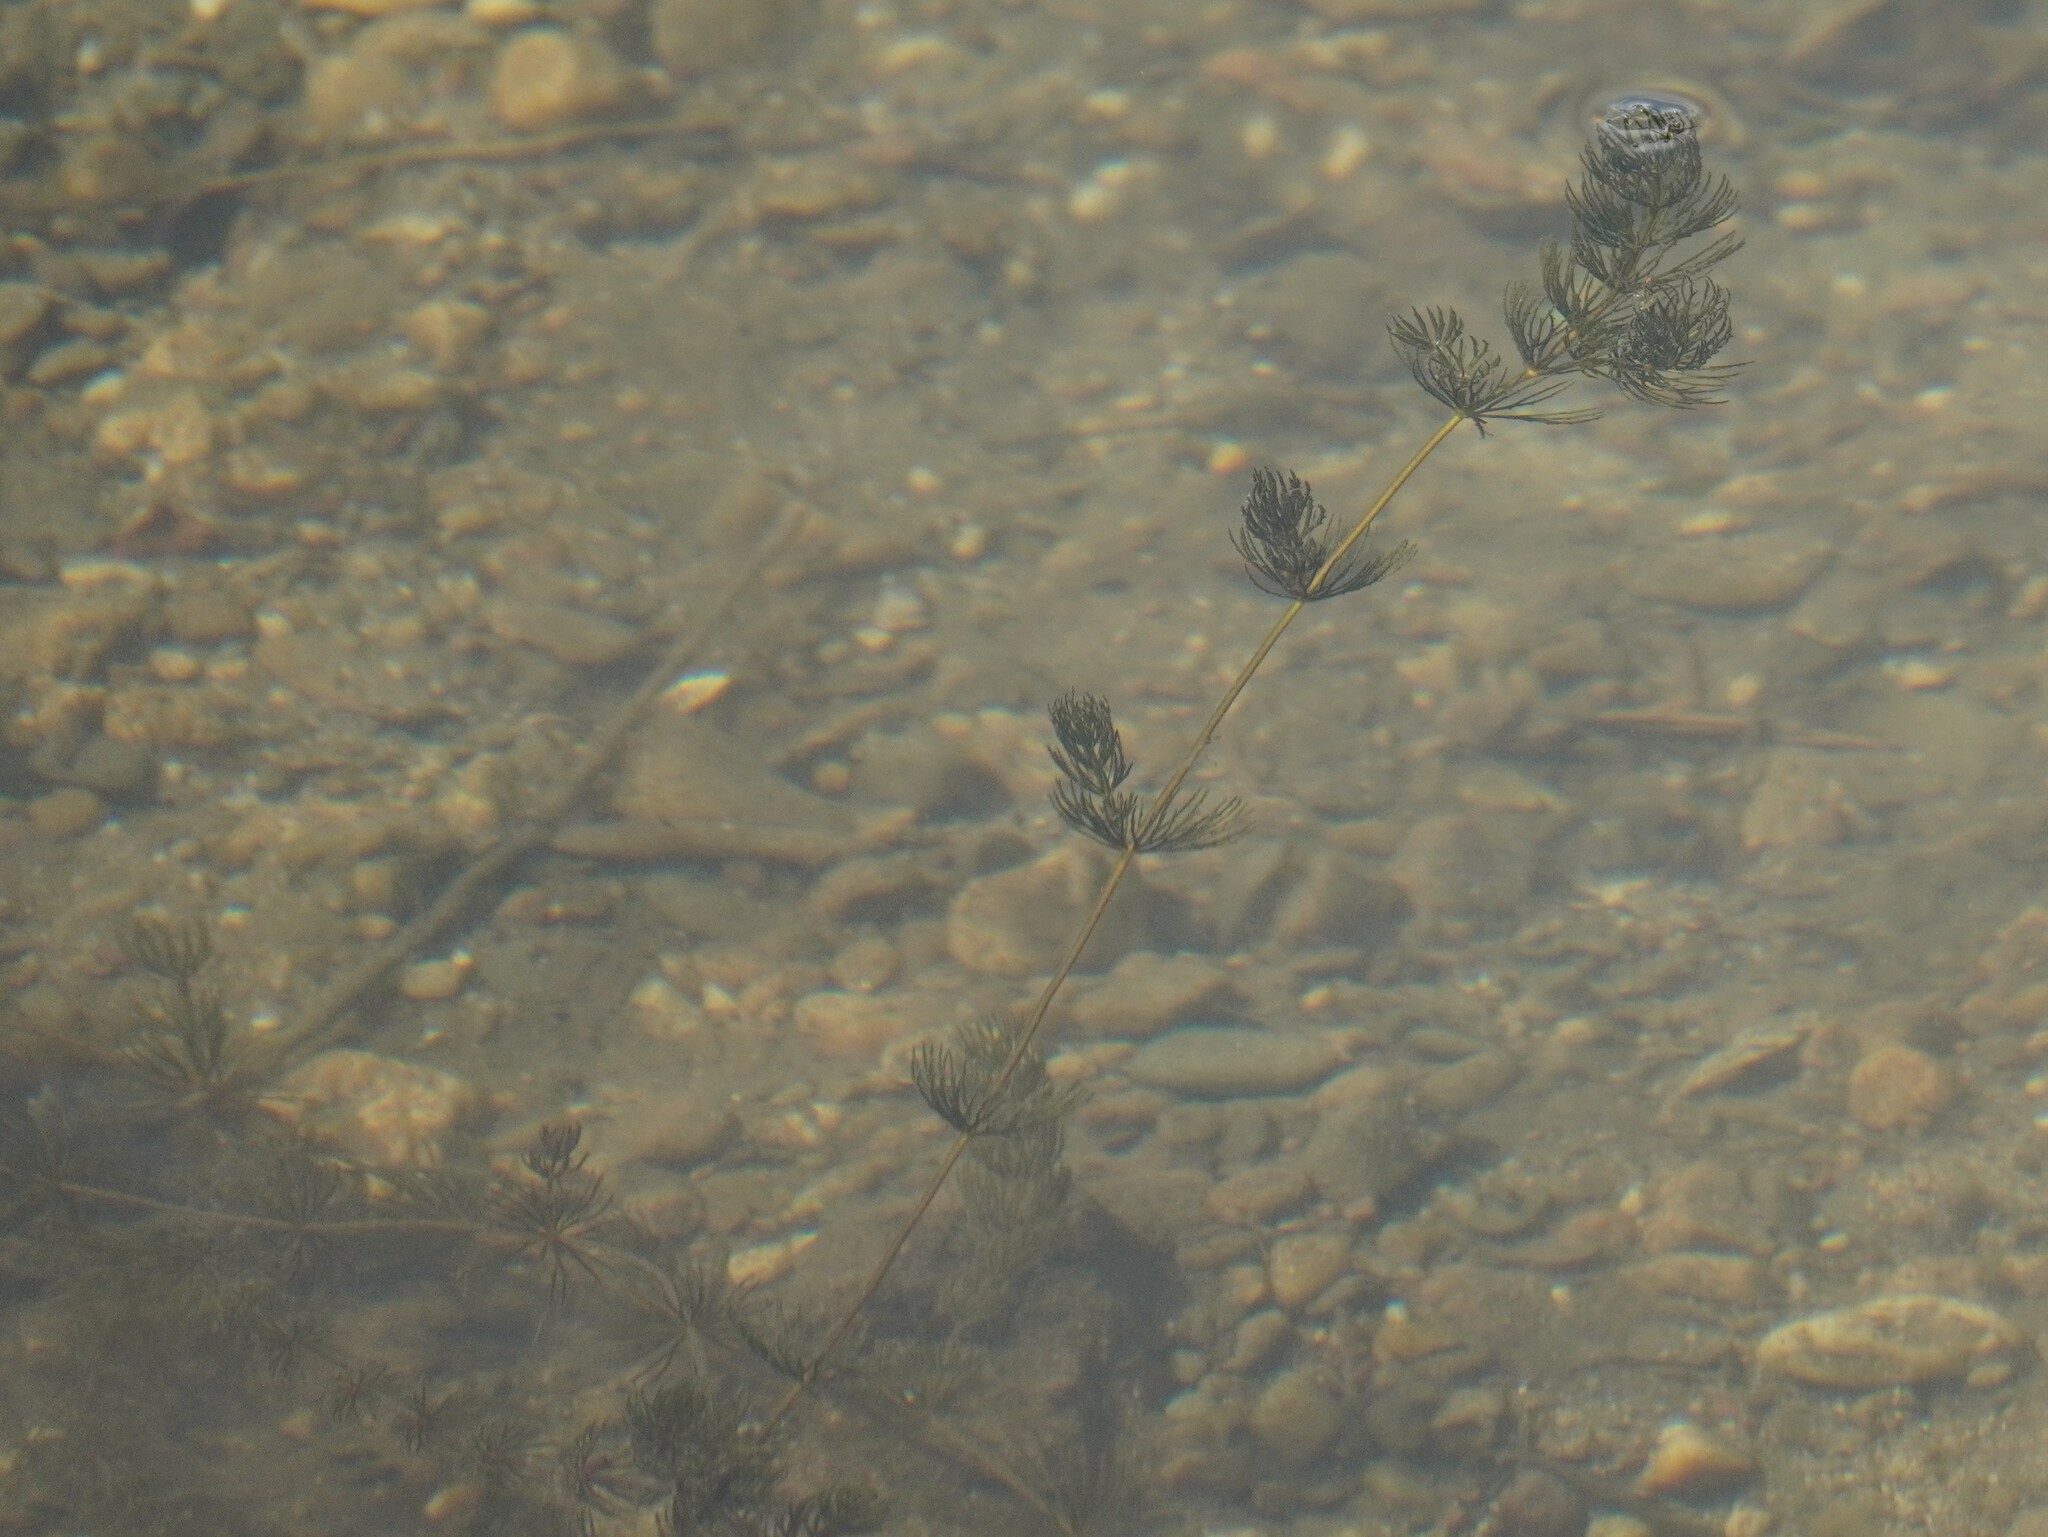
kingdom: Plantae
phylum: Tracheophyta
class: Magnoliopsida
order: Ceratophyllales
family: Ceratophyllaceae
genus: Ceratophyllum
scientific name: Ceratophyllum demersum
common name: Rigid hornwort
